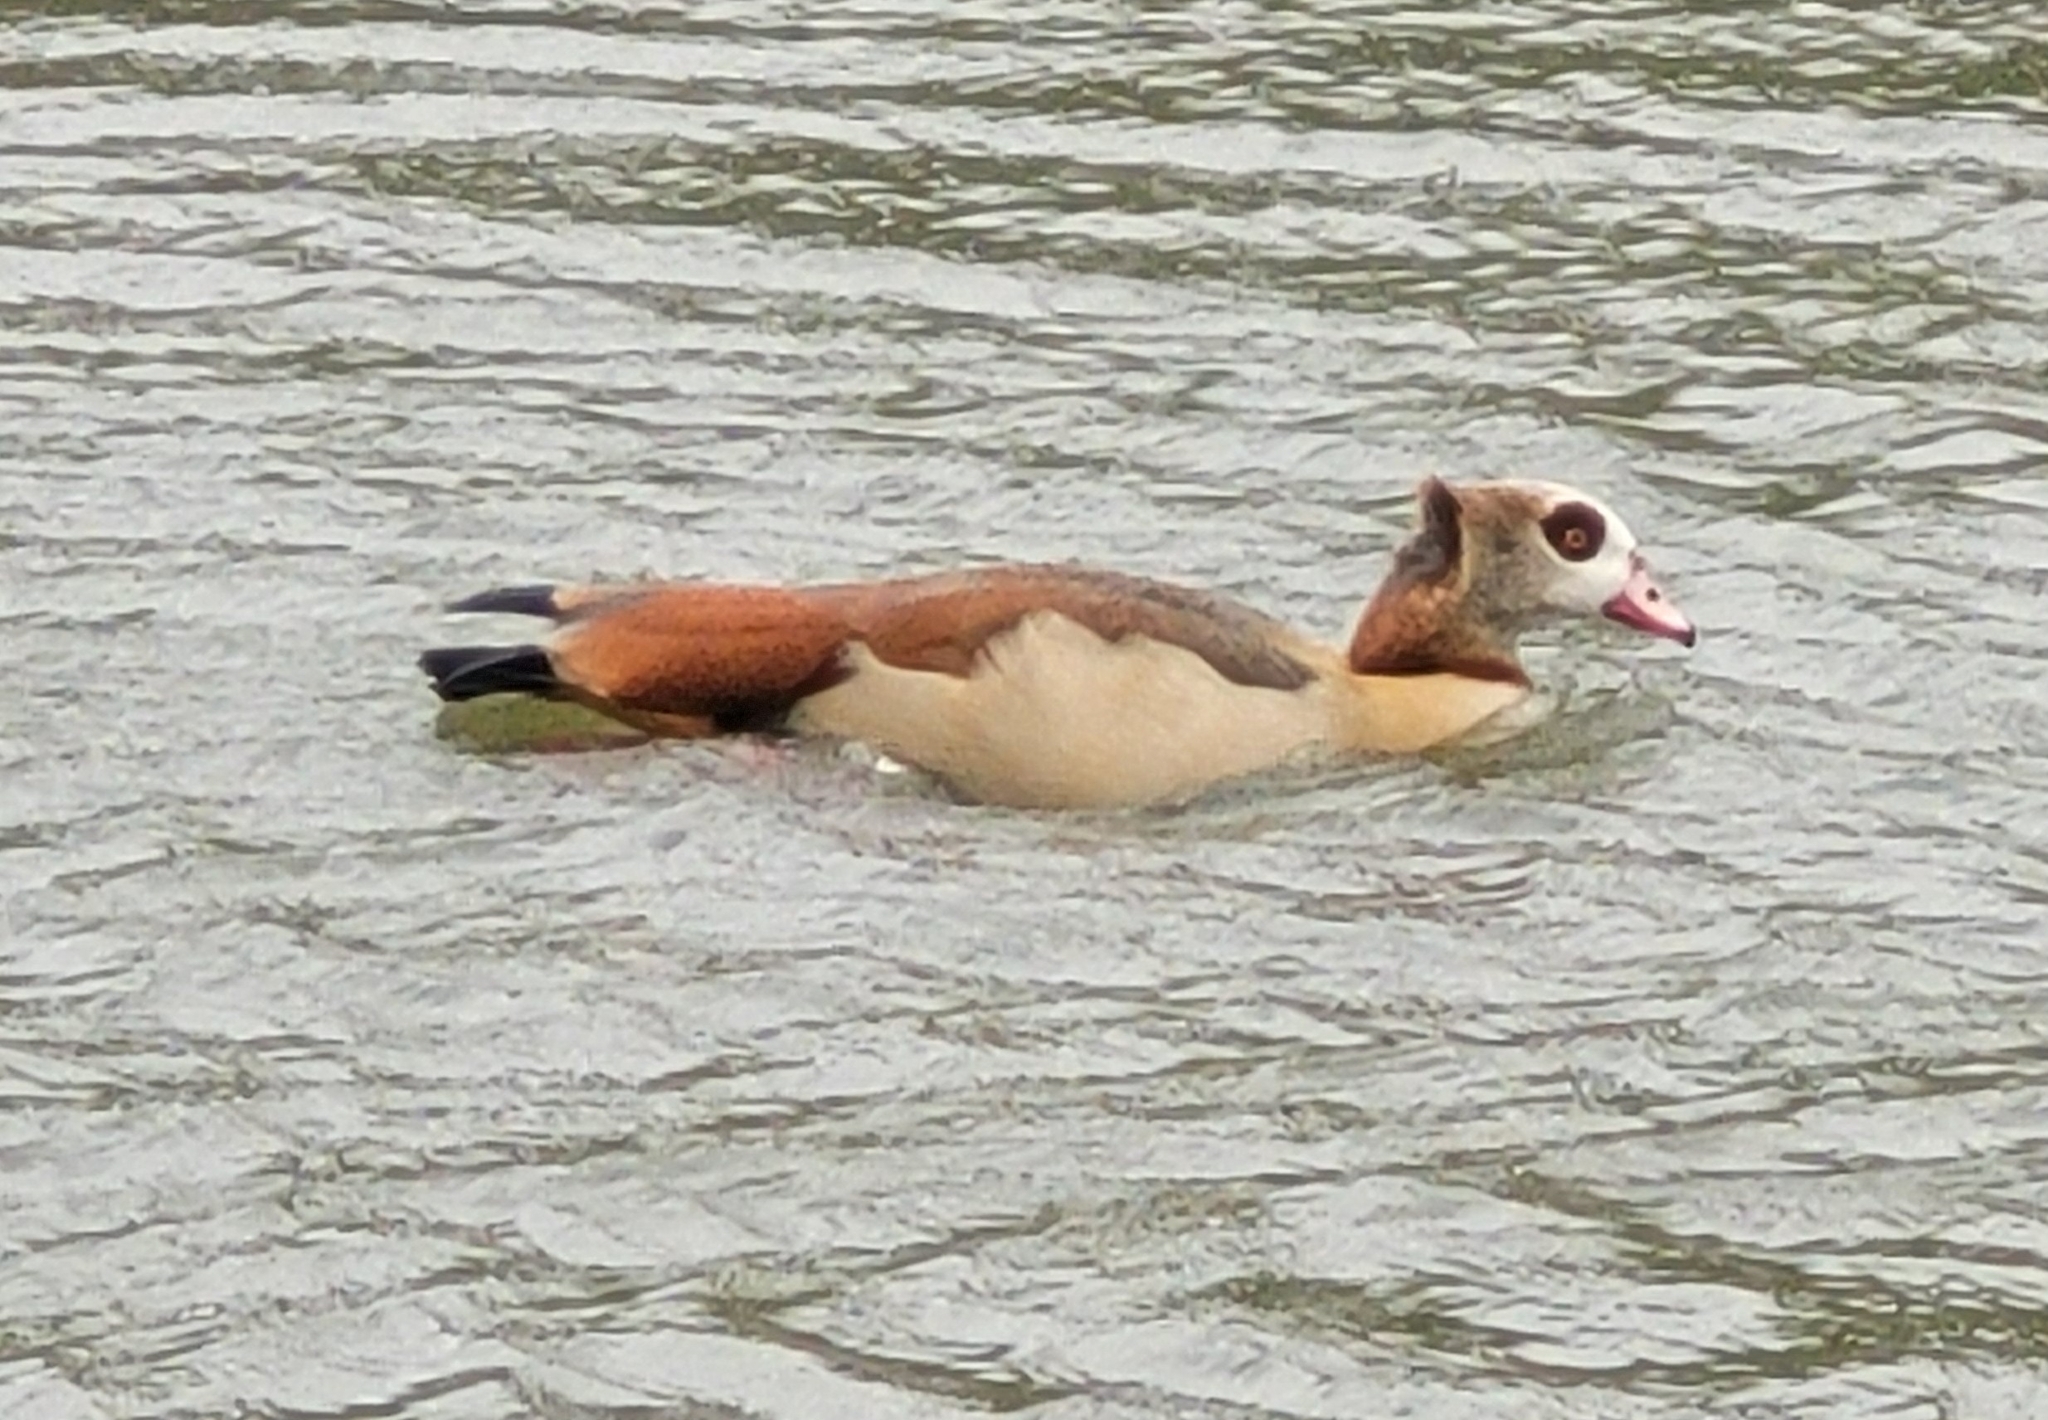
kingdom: Animalia
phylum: Chordata
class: Aves
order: Anseriformes
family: Anatidae
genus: Alopochen
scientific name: Alopochen aegyptiaca
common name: Egyptian goose
